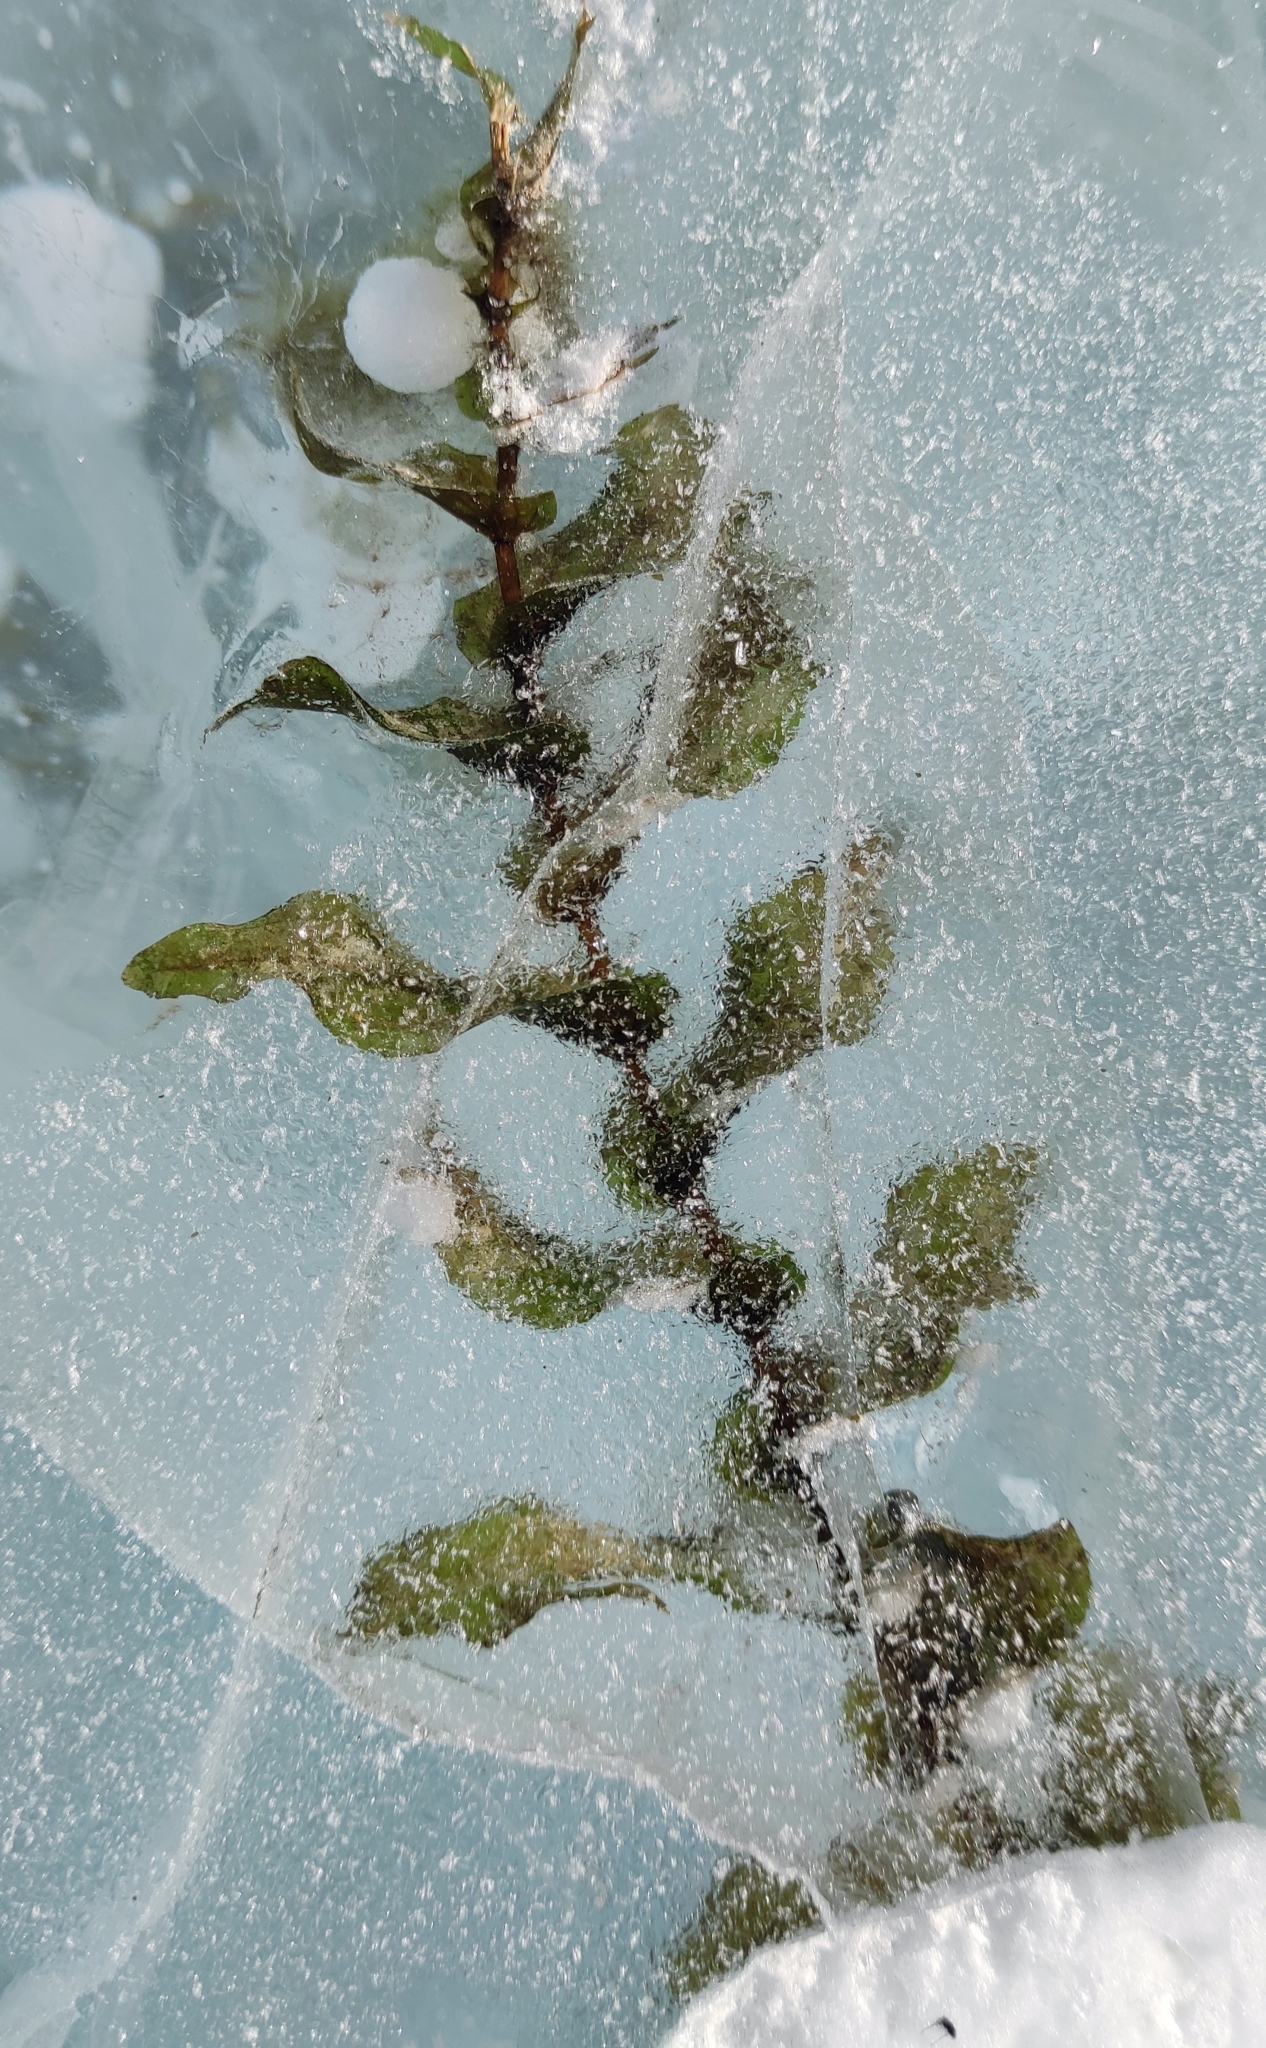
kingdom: Plantae
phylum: Tracheophyta
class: Liliopsida
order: Alismatales
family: Potamogetonaceae
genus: Potamogeton
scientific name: Potamogeton perfoliatus
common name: Perfoliate pondweed
